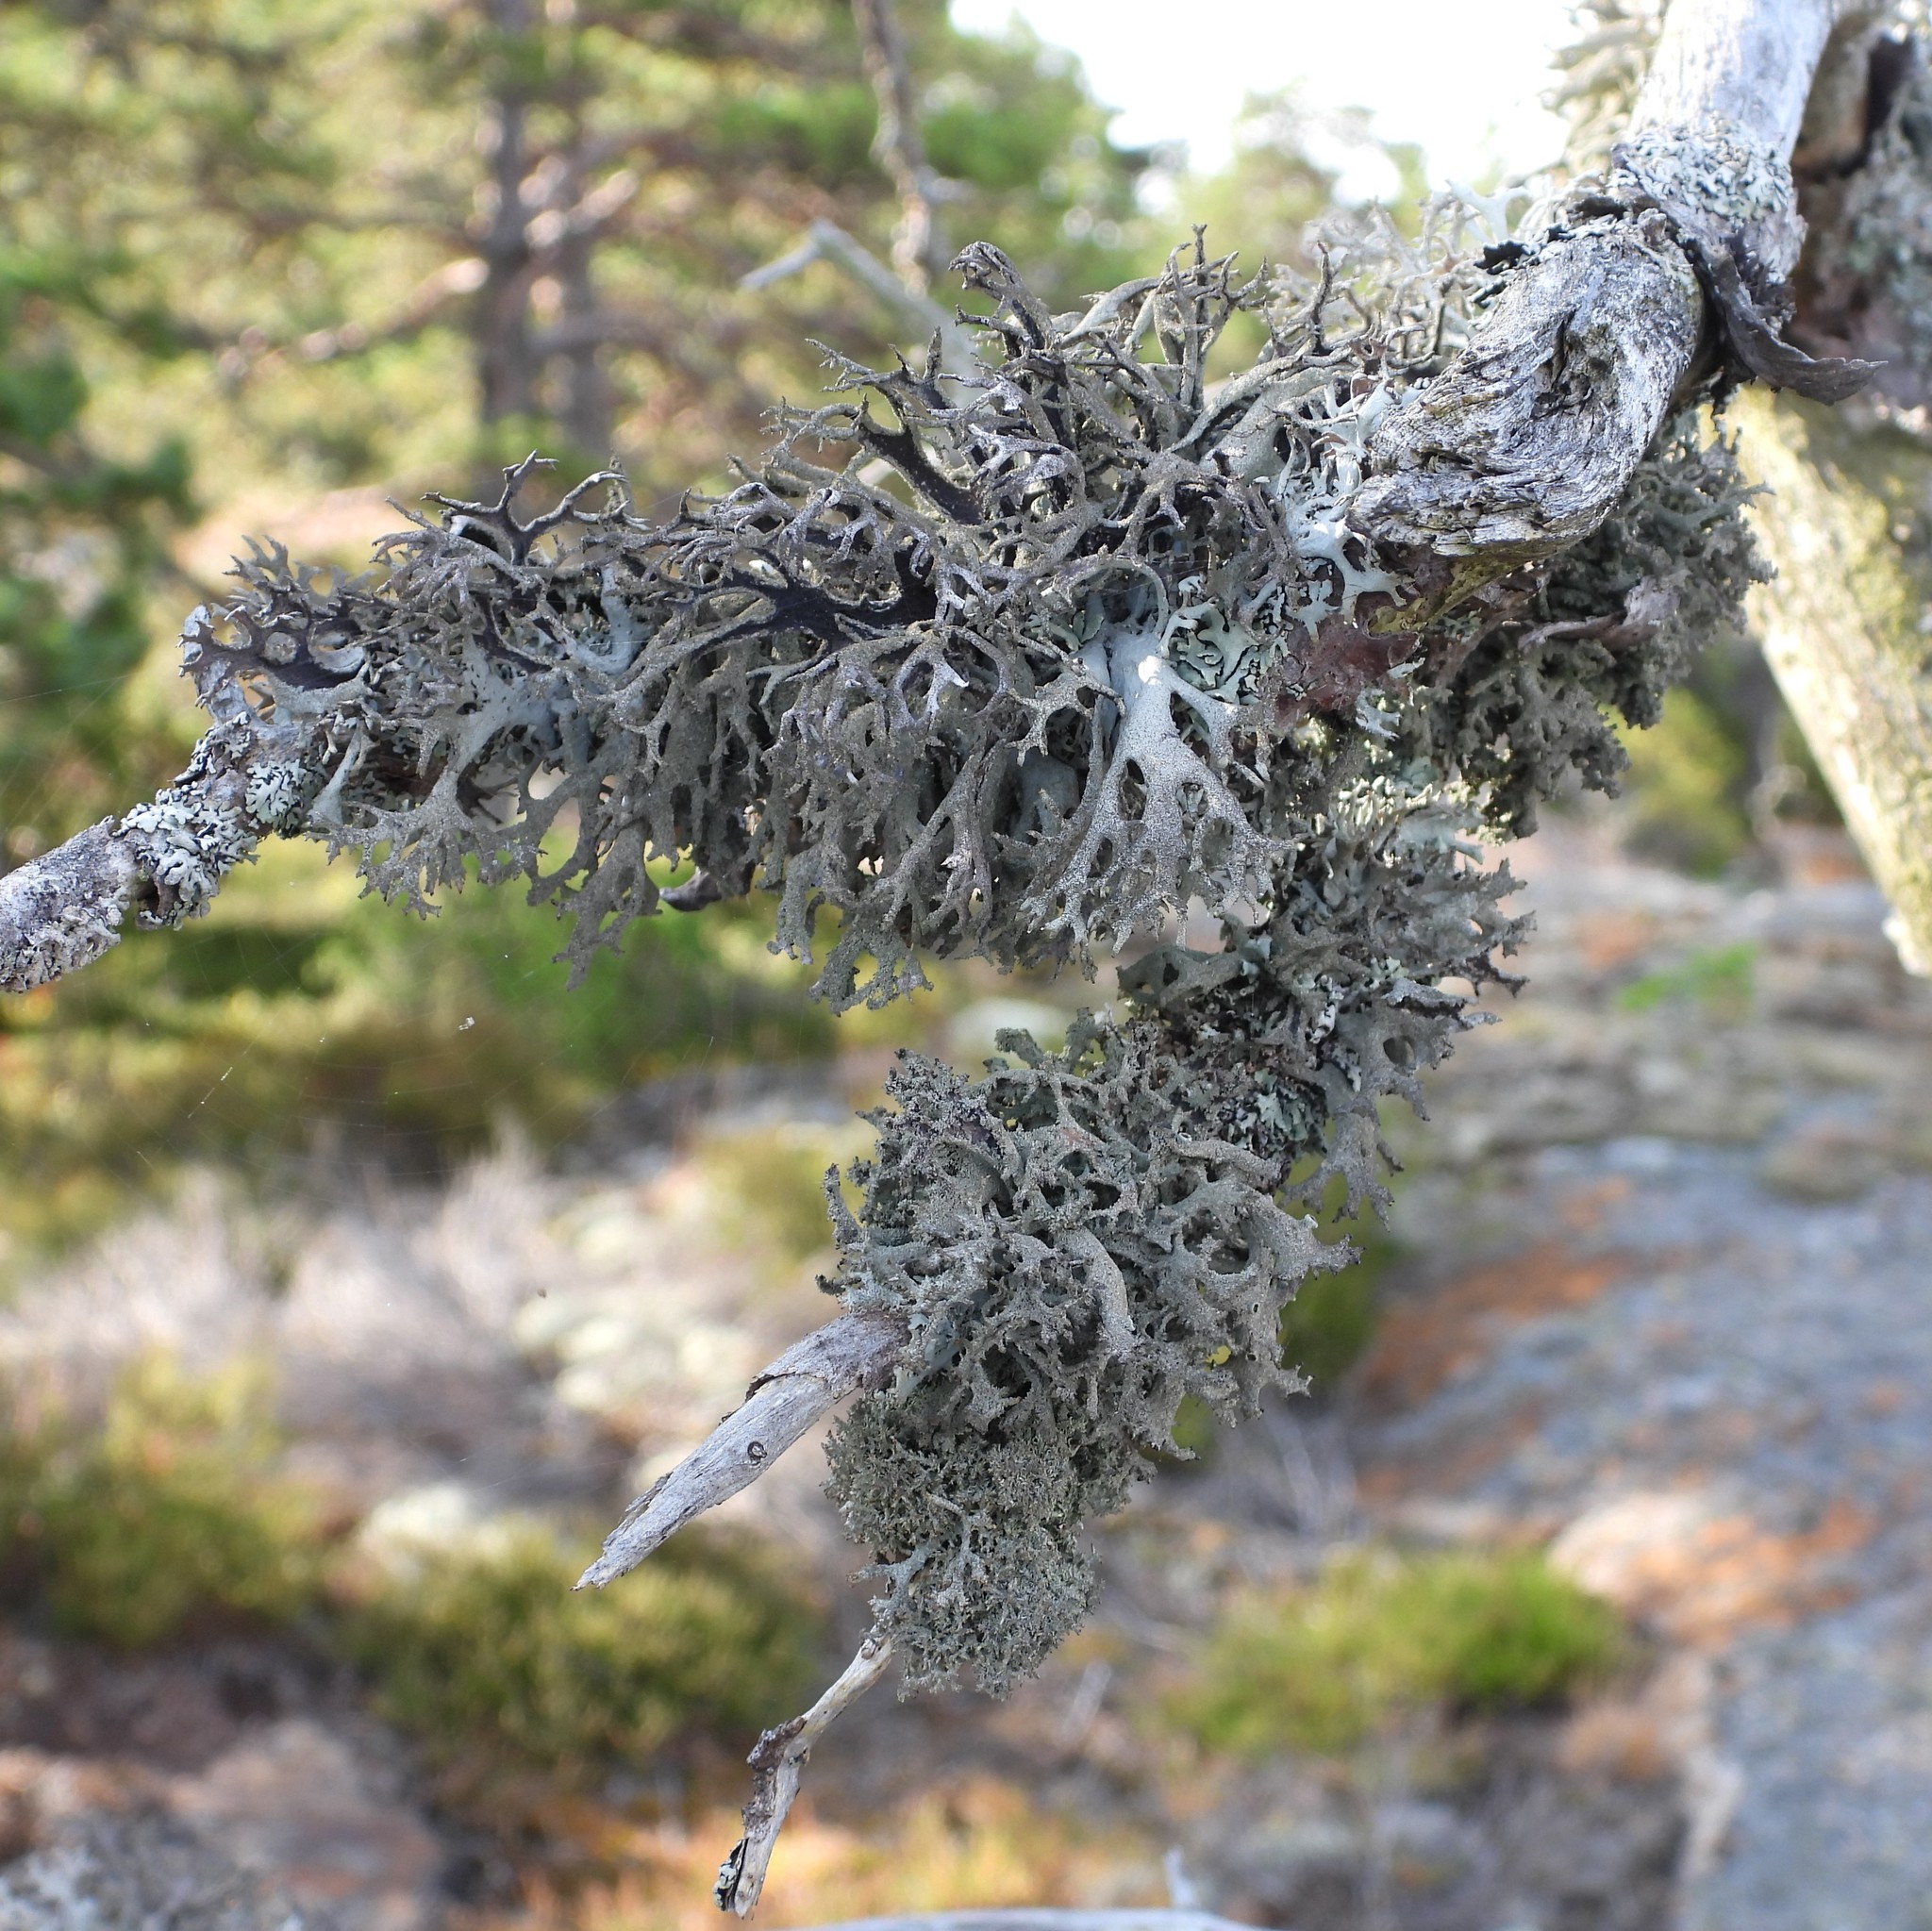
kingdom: Fungi
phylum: Ascomycota
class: Lecanoromycetes
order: Lecanorales
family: Parmeliaceae
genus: Pseudevernia
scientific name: Pseudevernia furfuracea
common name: Tree moss
